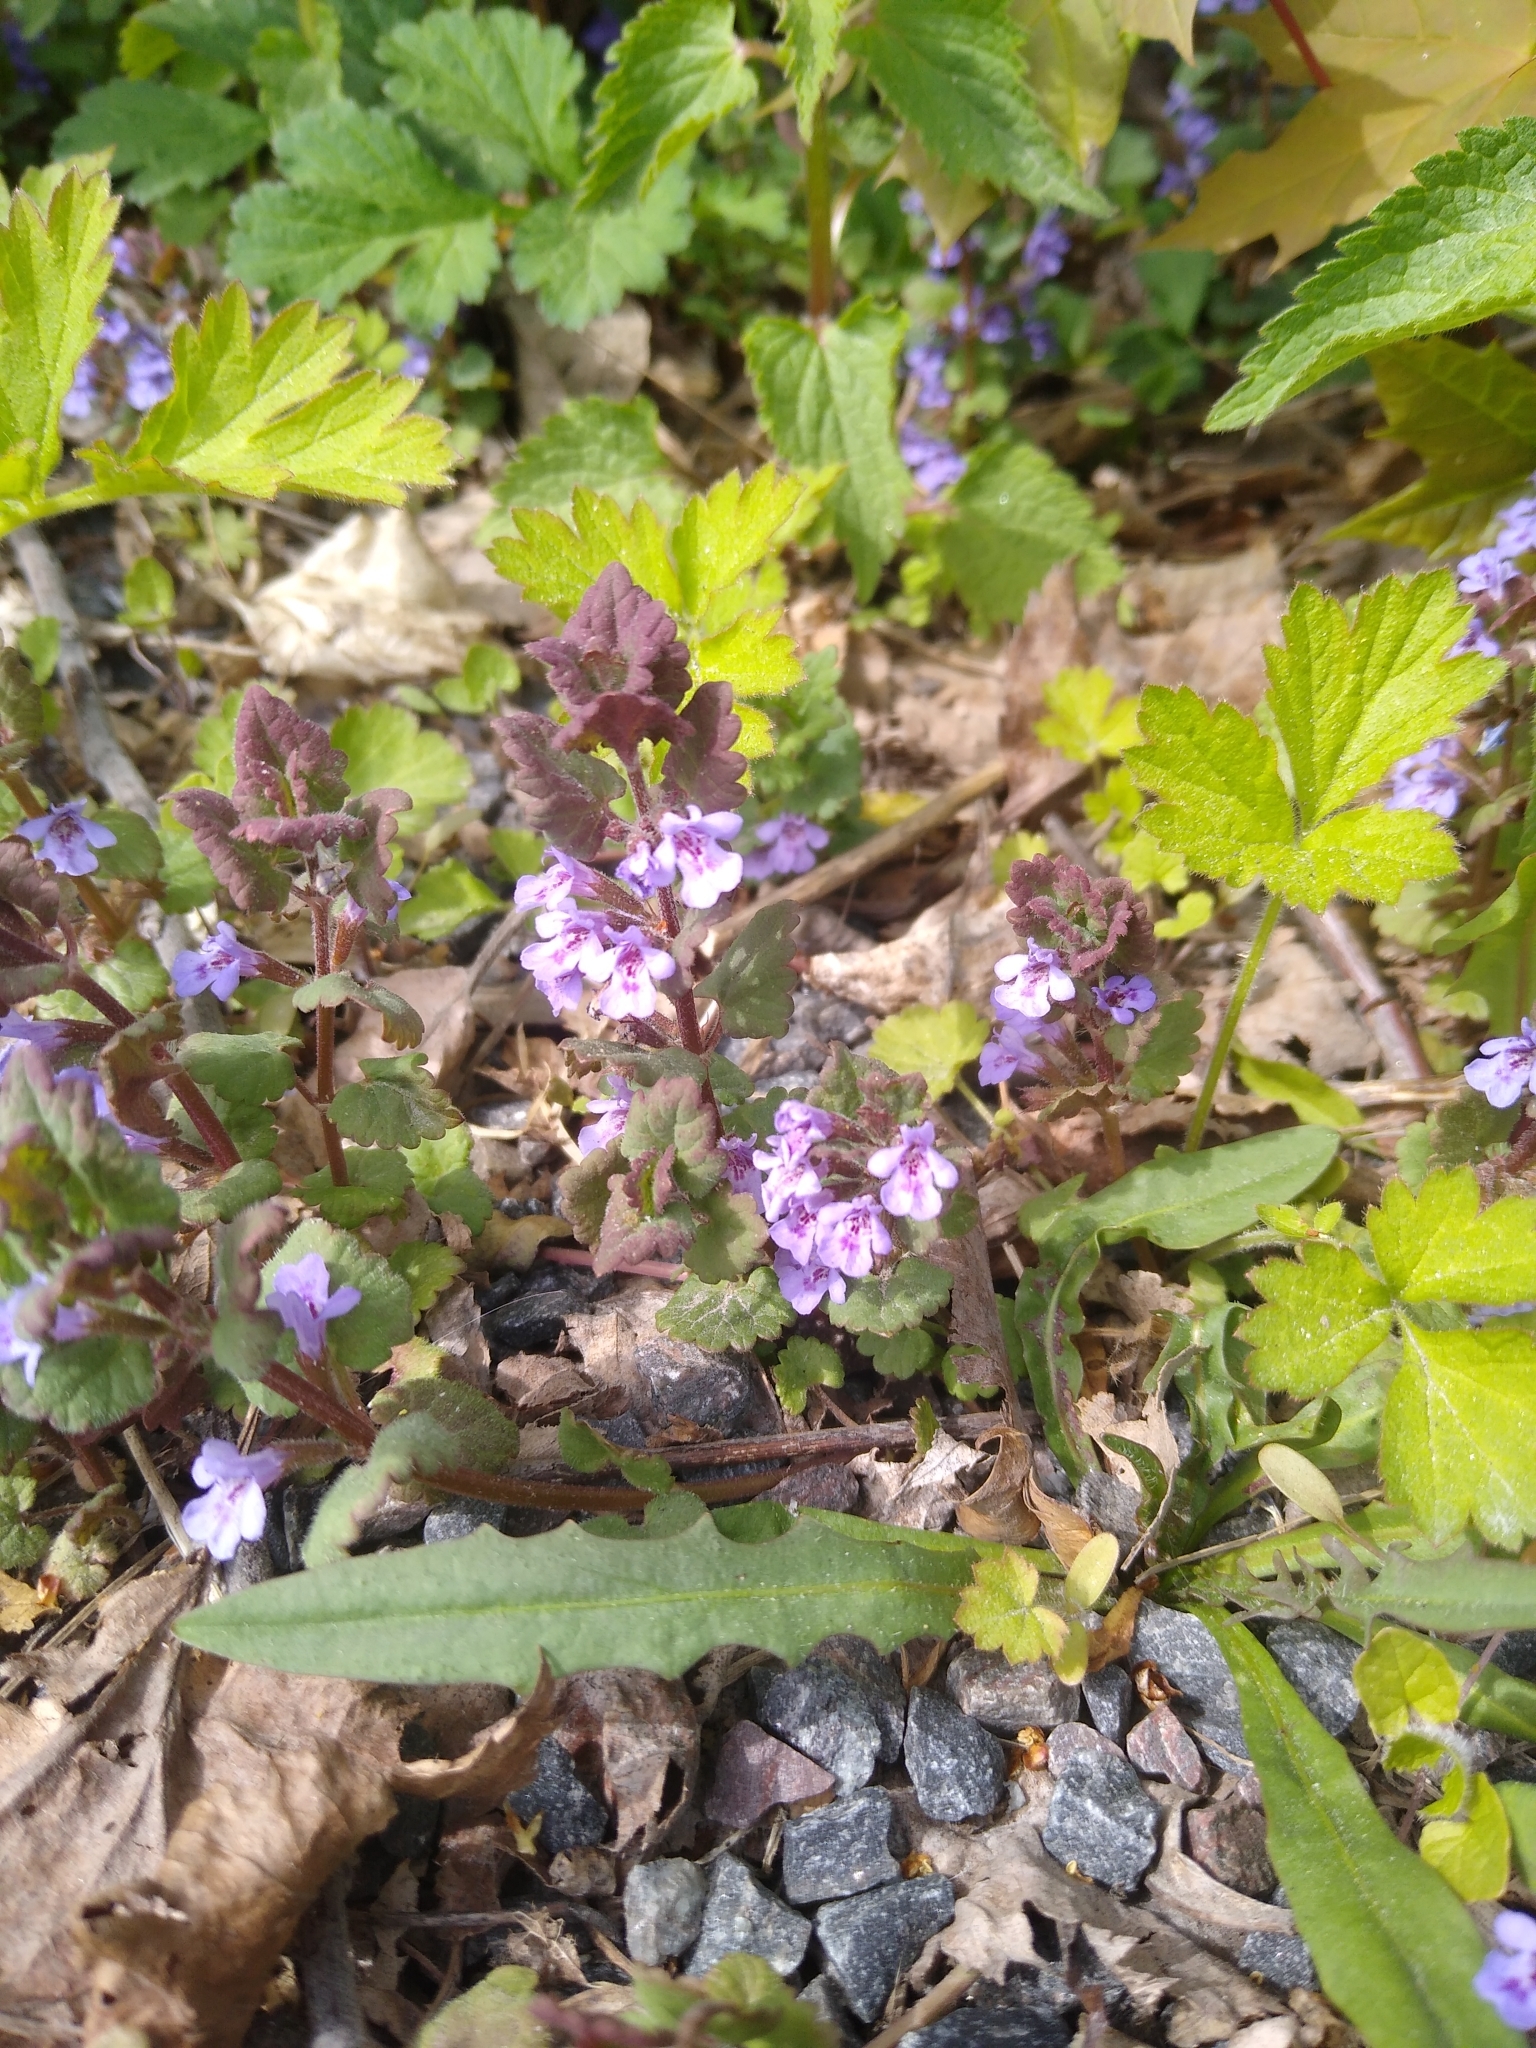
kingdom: Plantae
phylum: Tracheophyta
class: Magnoliopsida
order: Lamiales
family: Lamiaceae
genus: Glechoma
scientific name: Glechoma hederacea
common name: Ground ivy
